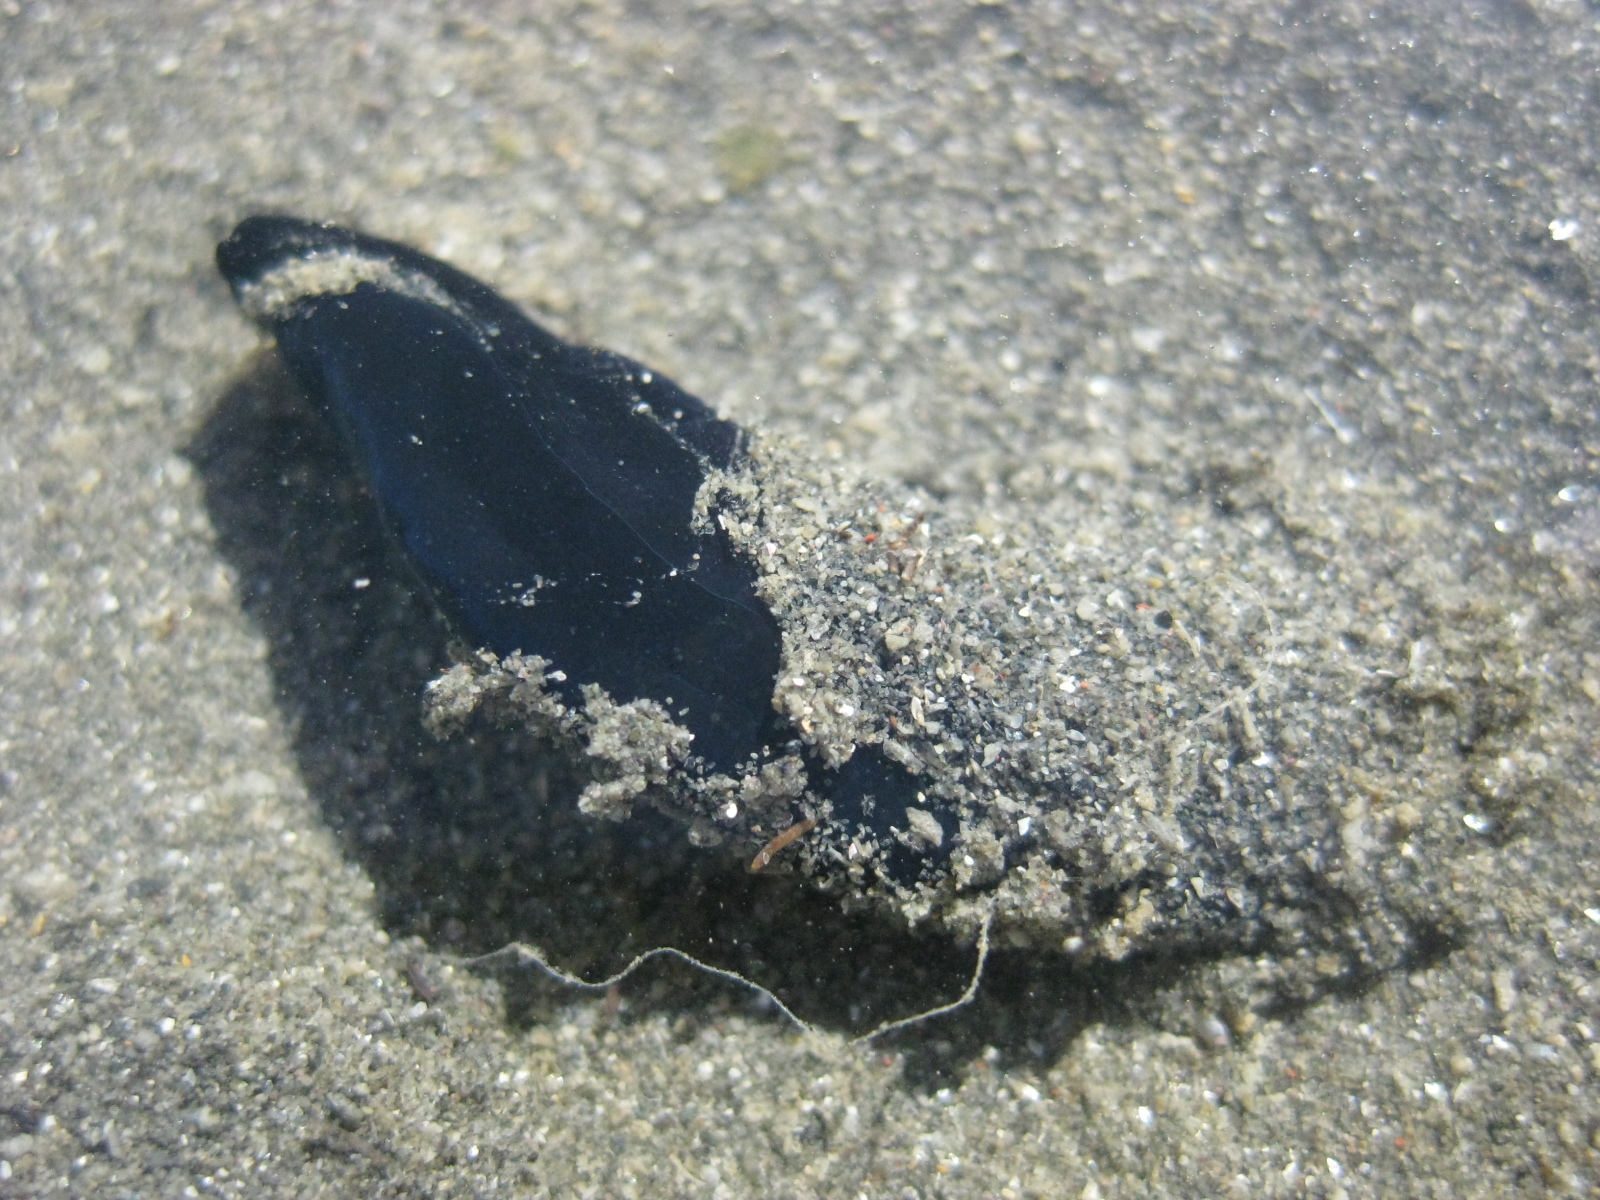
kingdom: Animalia
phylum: Mollusca
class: Gastropoda
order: Cephalaspidea
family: Aglajidae
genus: Melanochlamys
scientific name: Melanochlamys cylindrica
